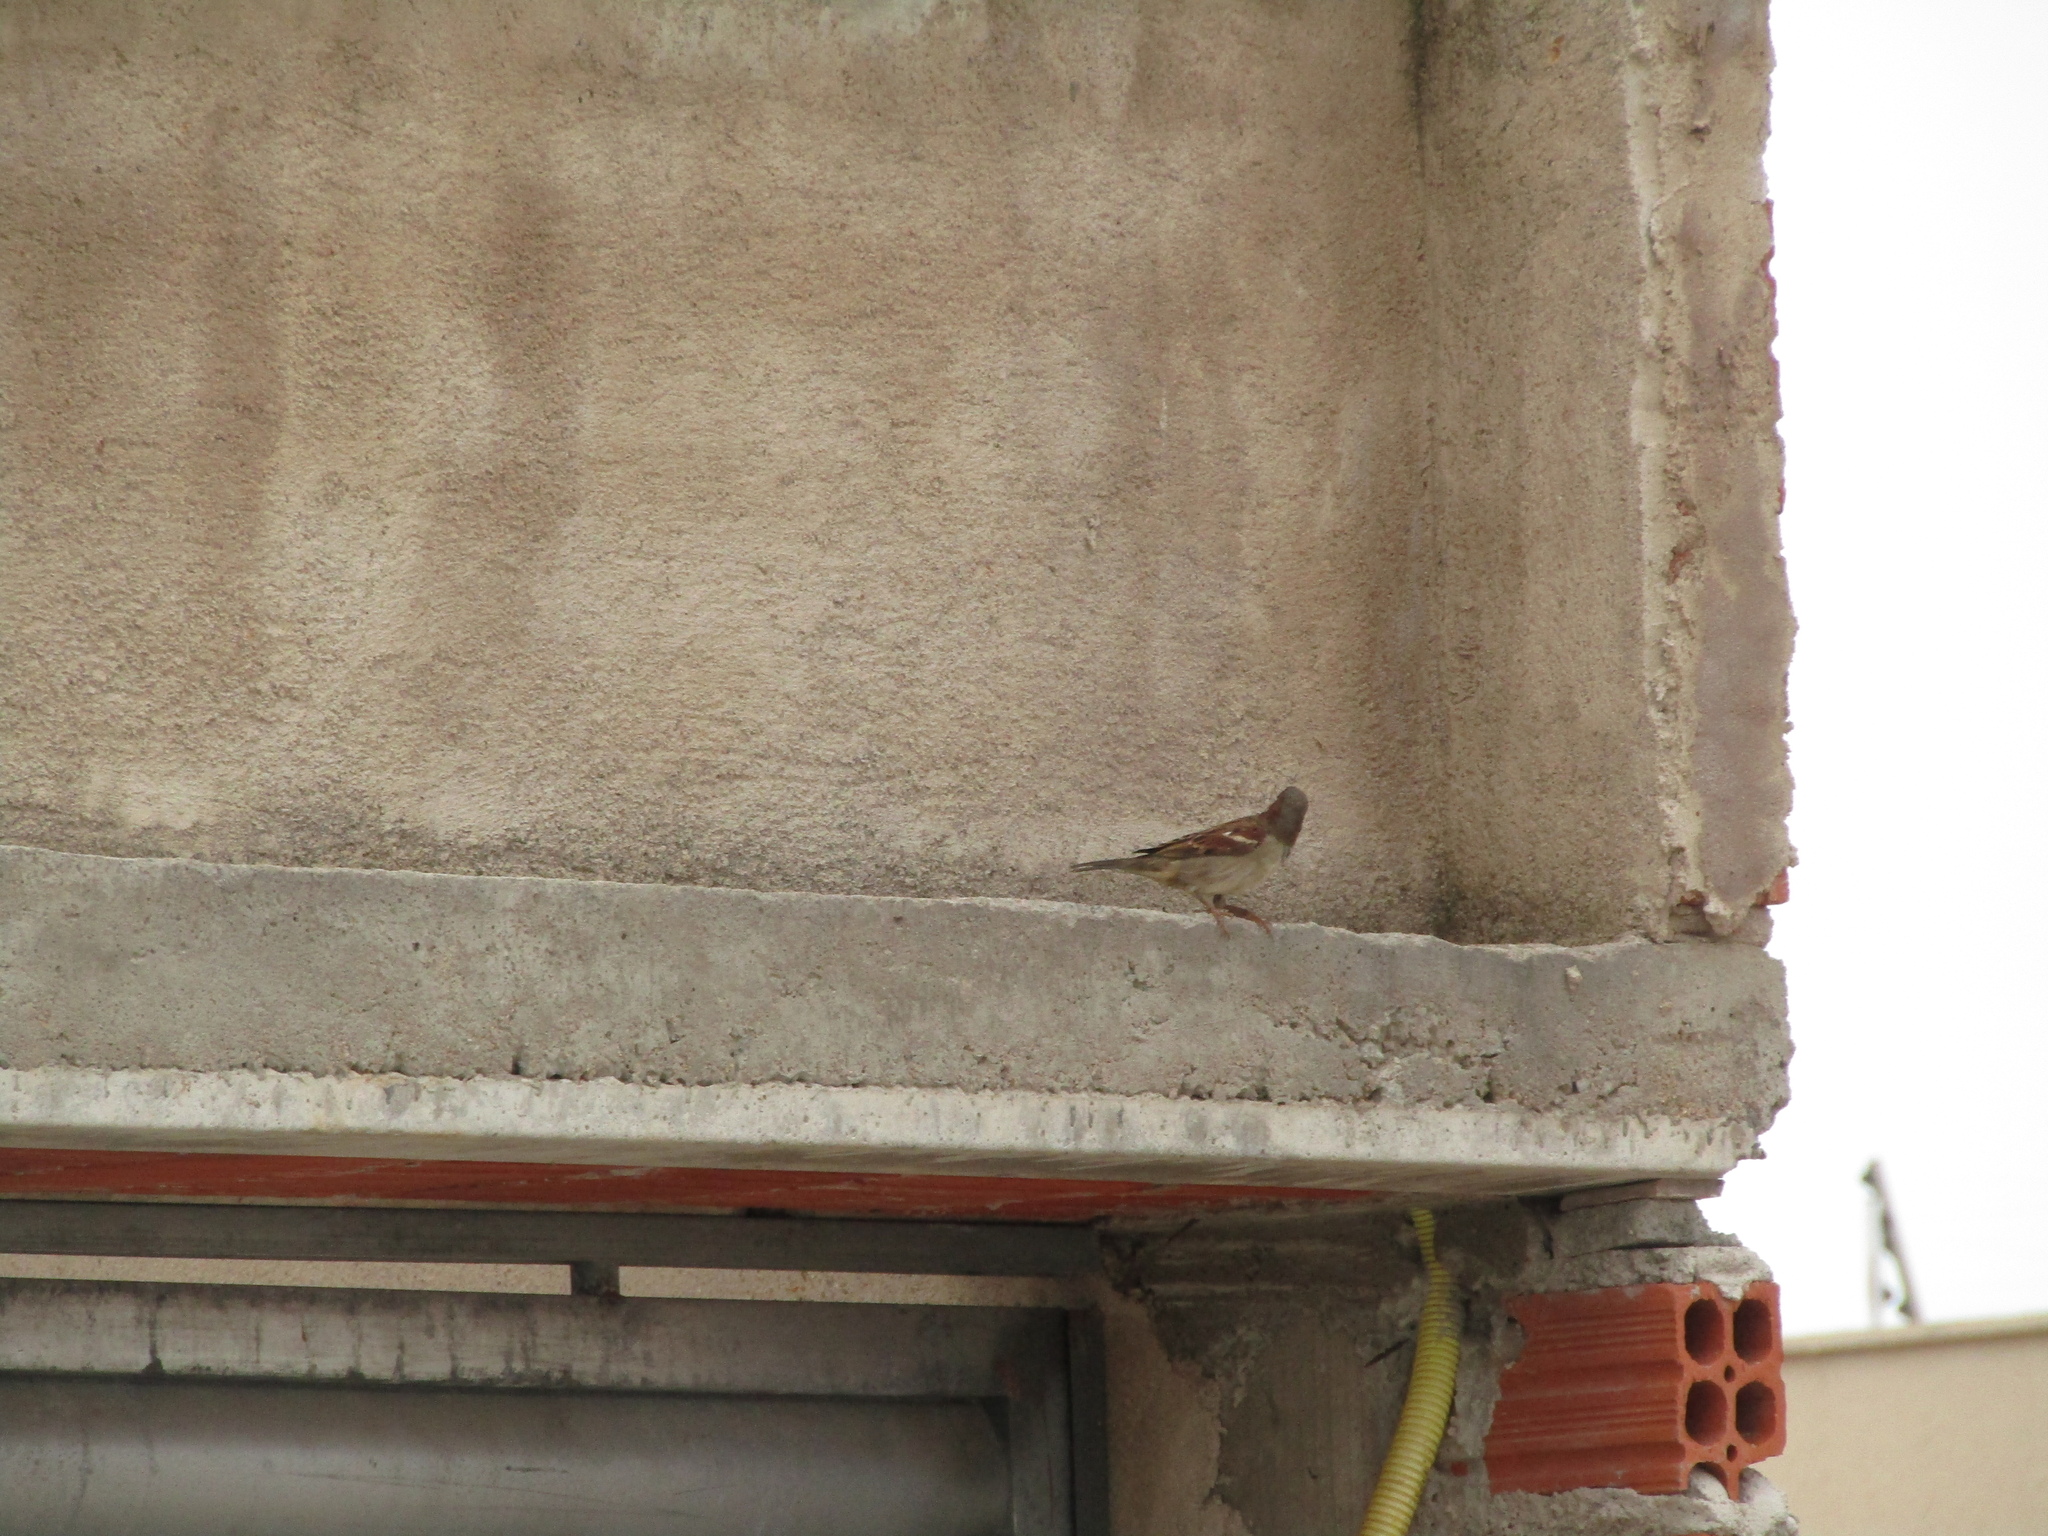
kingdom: Animalia
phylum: Chordata
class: Aves
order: Passeriformes
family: Passeridae
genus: Passer
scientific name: Passer domesticus
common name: House sparrow
